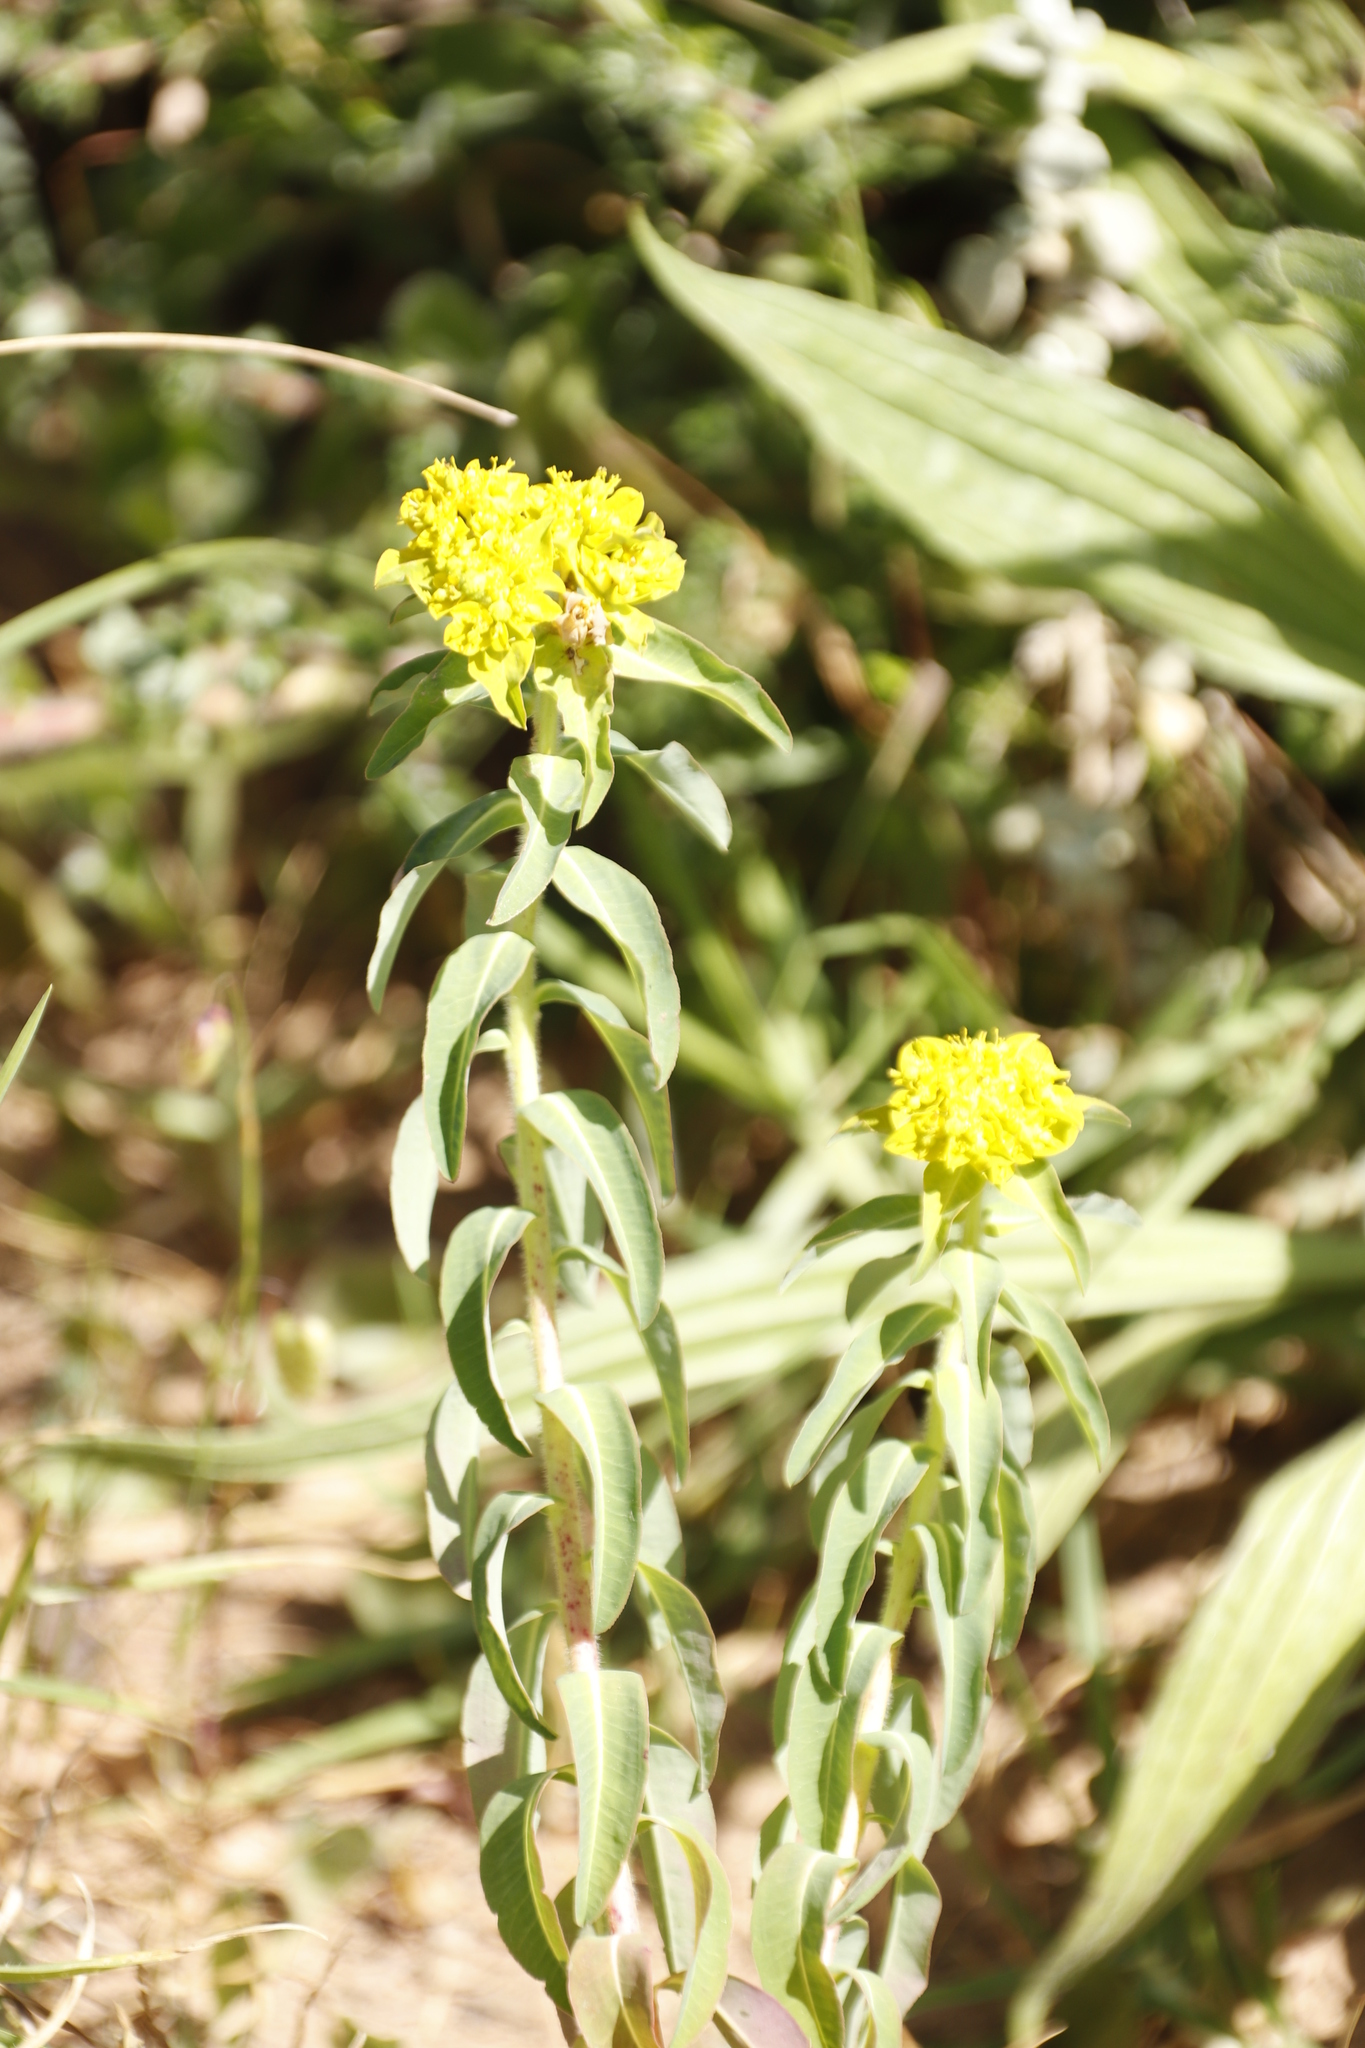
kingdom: Plantae
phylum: Tracheophyta
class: Magnoliopsida
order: Malpighiales
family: Euphorbiaceae
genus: Euphorbia
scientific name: Euphorbia oblongata
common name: Balkan spurge
